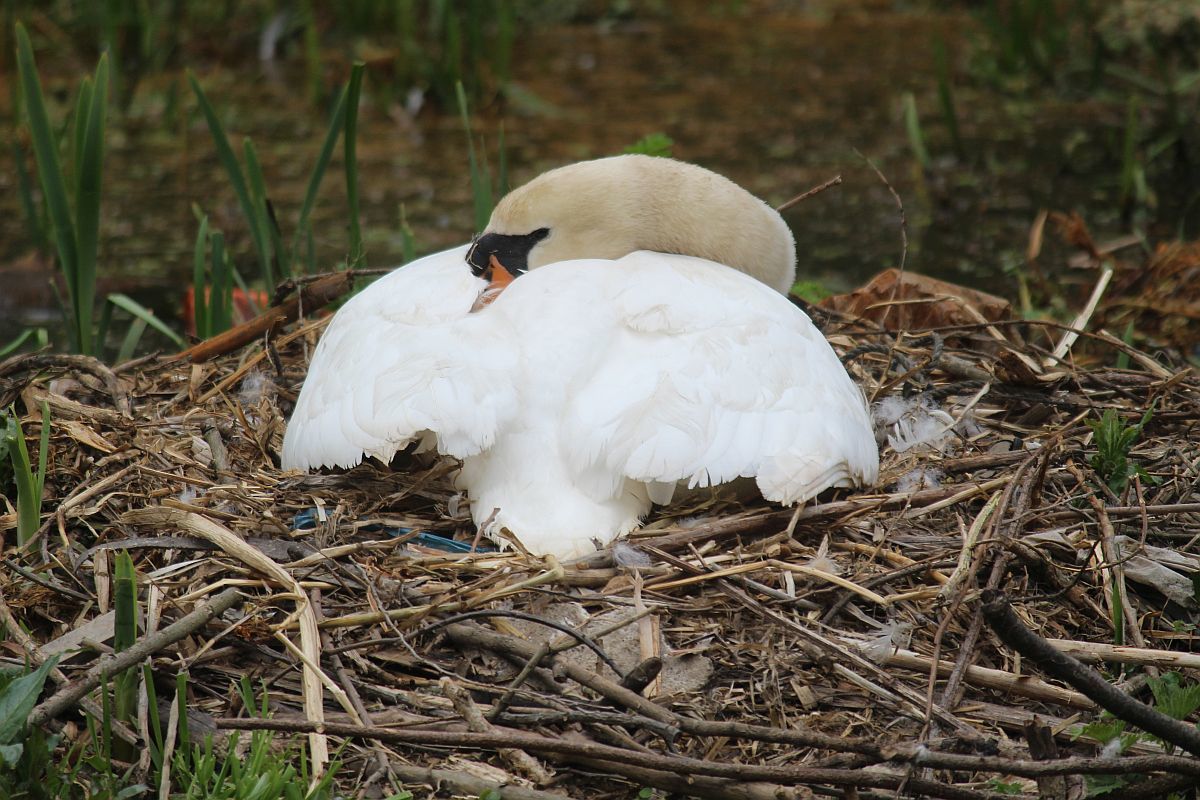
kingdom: Animalia
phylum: Chordata
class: Aves
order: Anseriformes
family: Anatidae
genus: Cygnus
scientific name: Cygnus olor
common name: Mute swan
